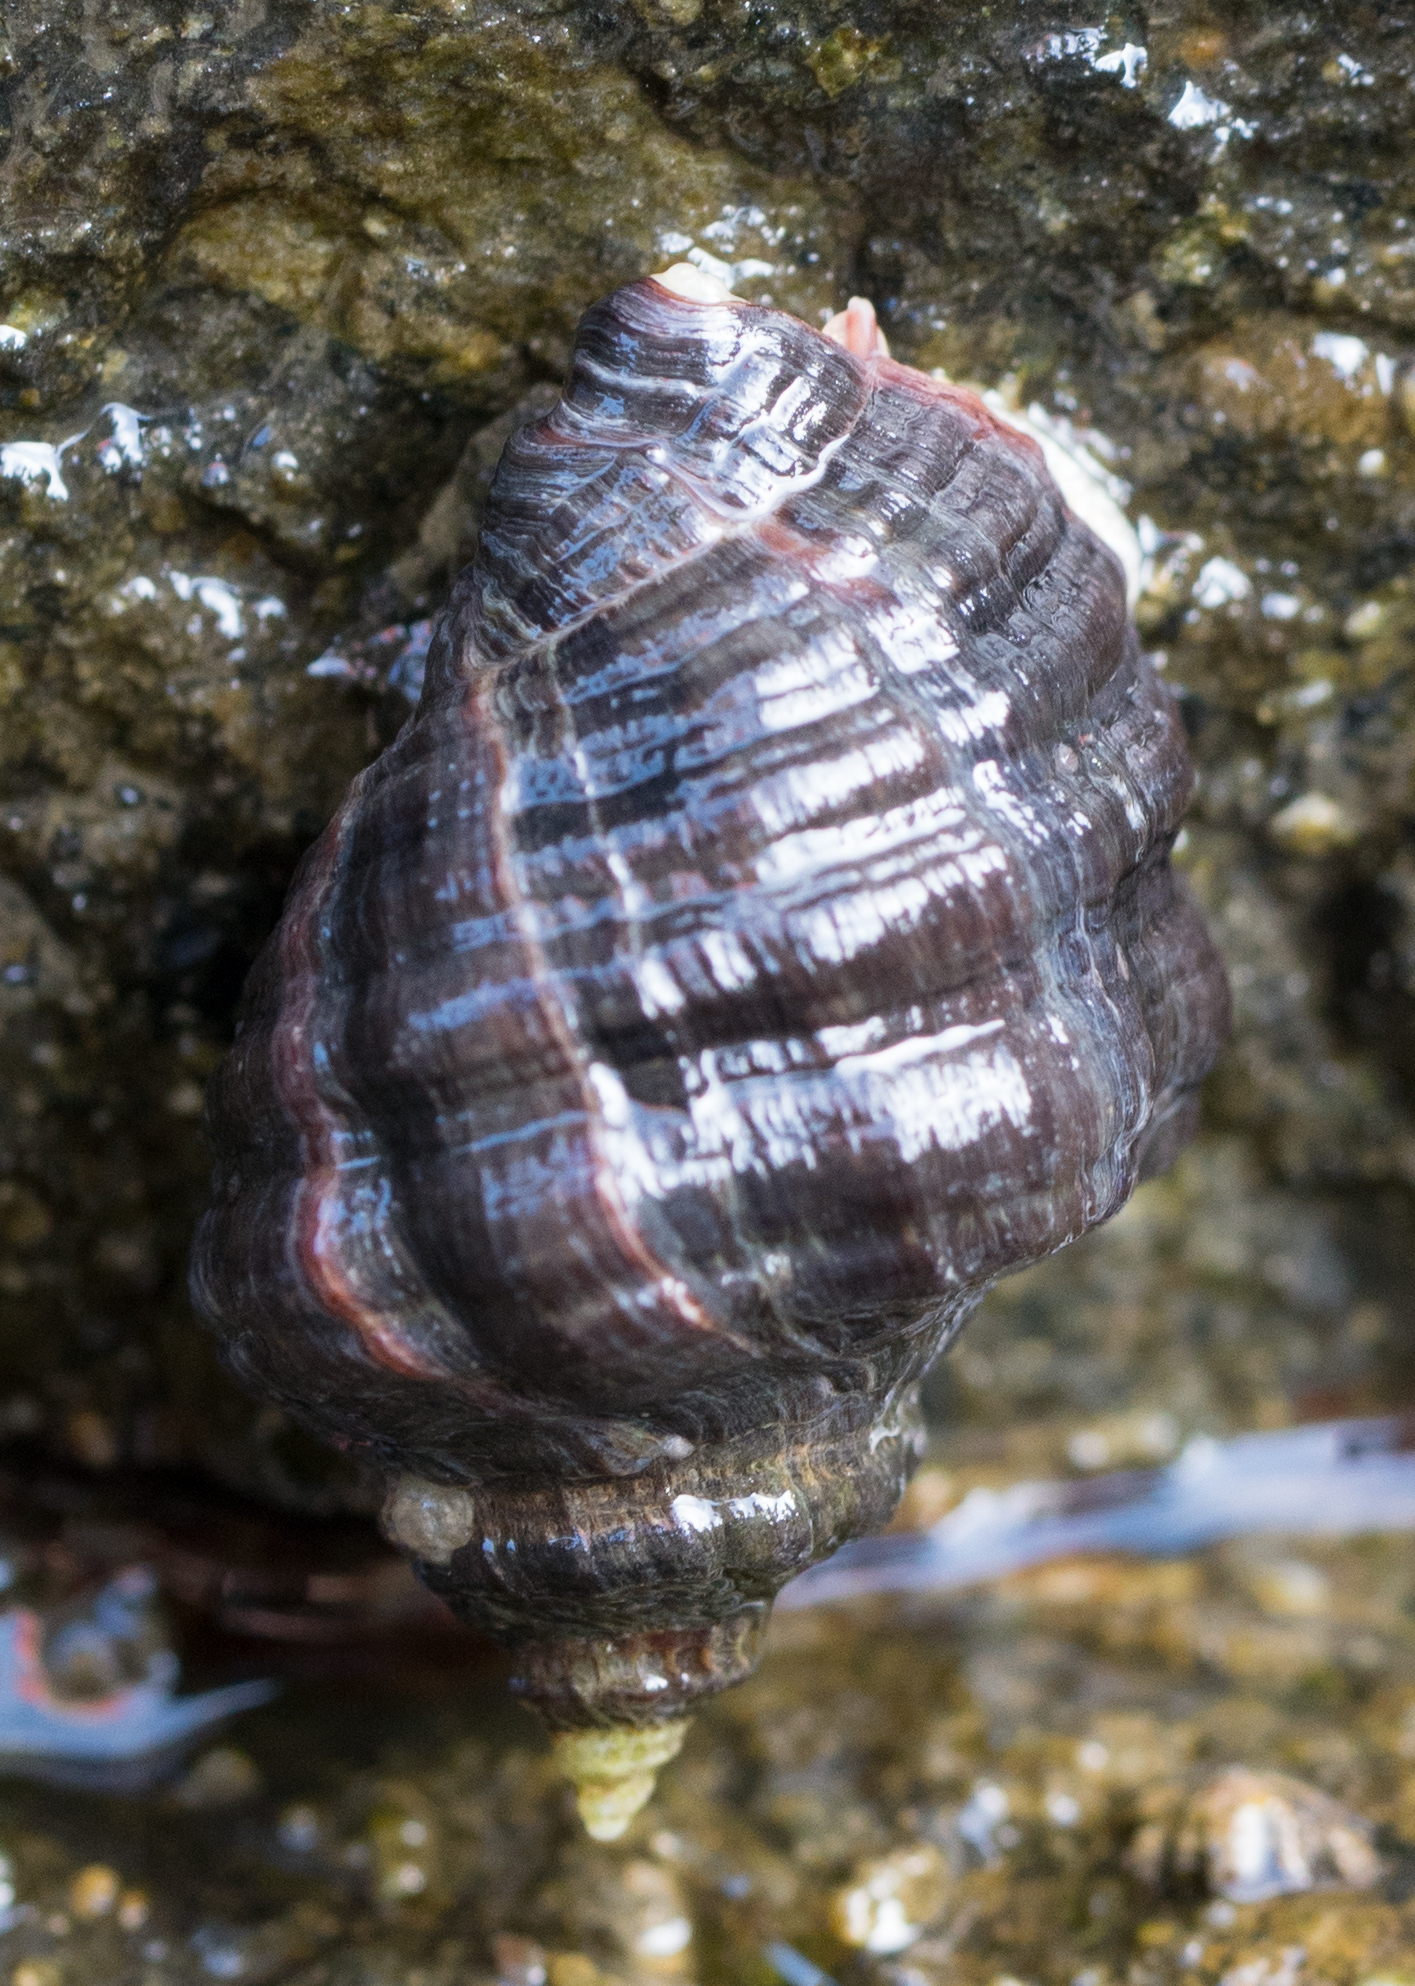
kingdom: Animalia
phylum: Mollusca
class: Gastropoda
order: Neogastropoda
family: Muricidae
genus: Mexacanthina
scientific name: Mexacanthina lugubris
